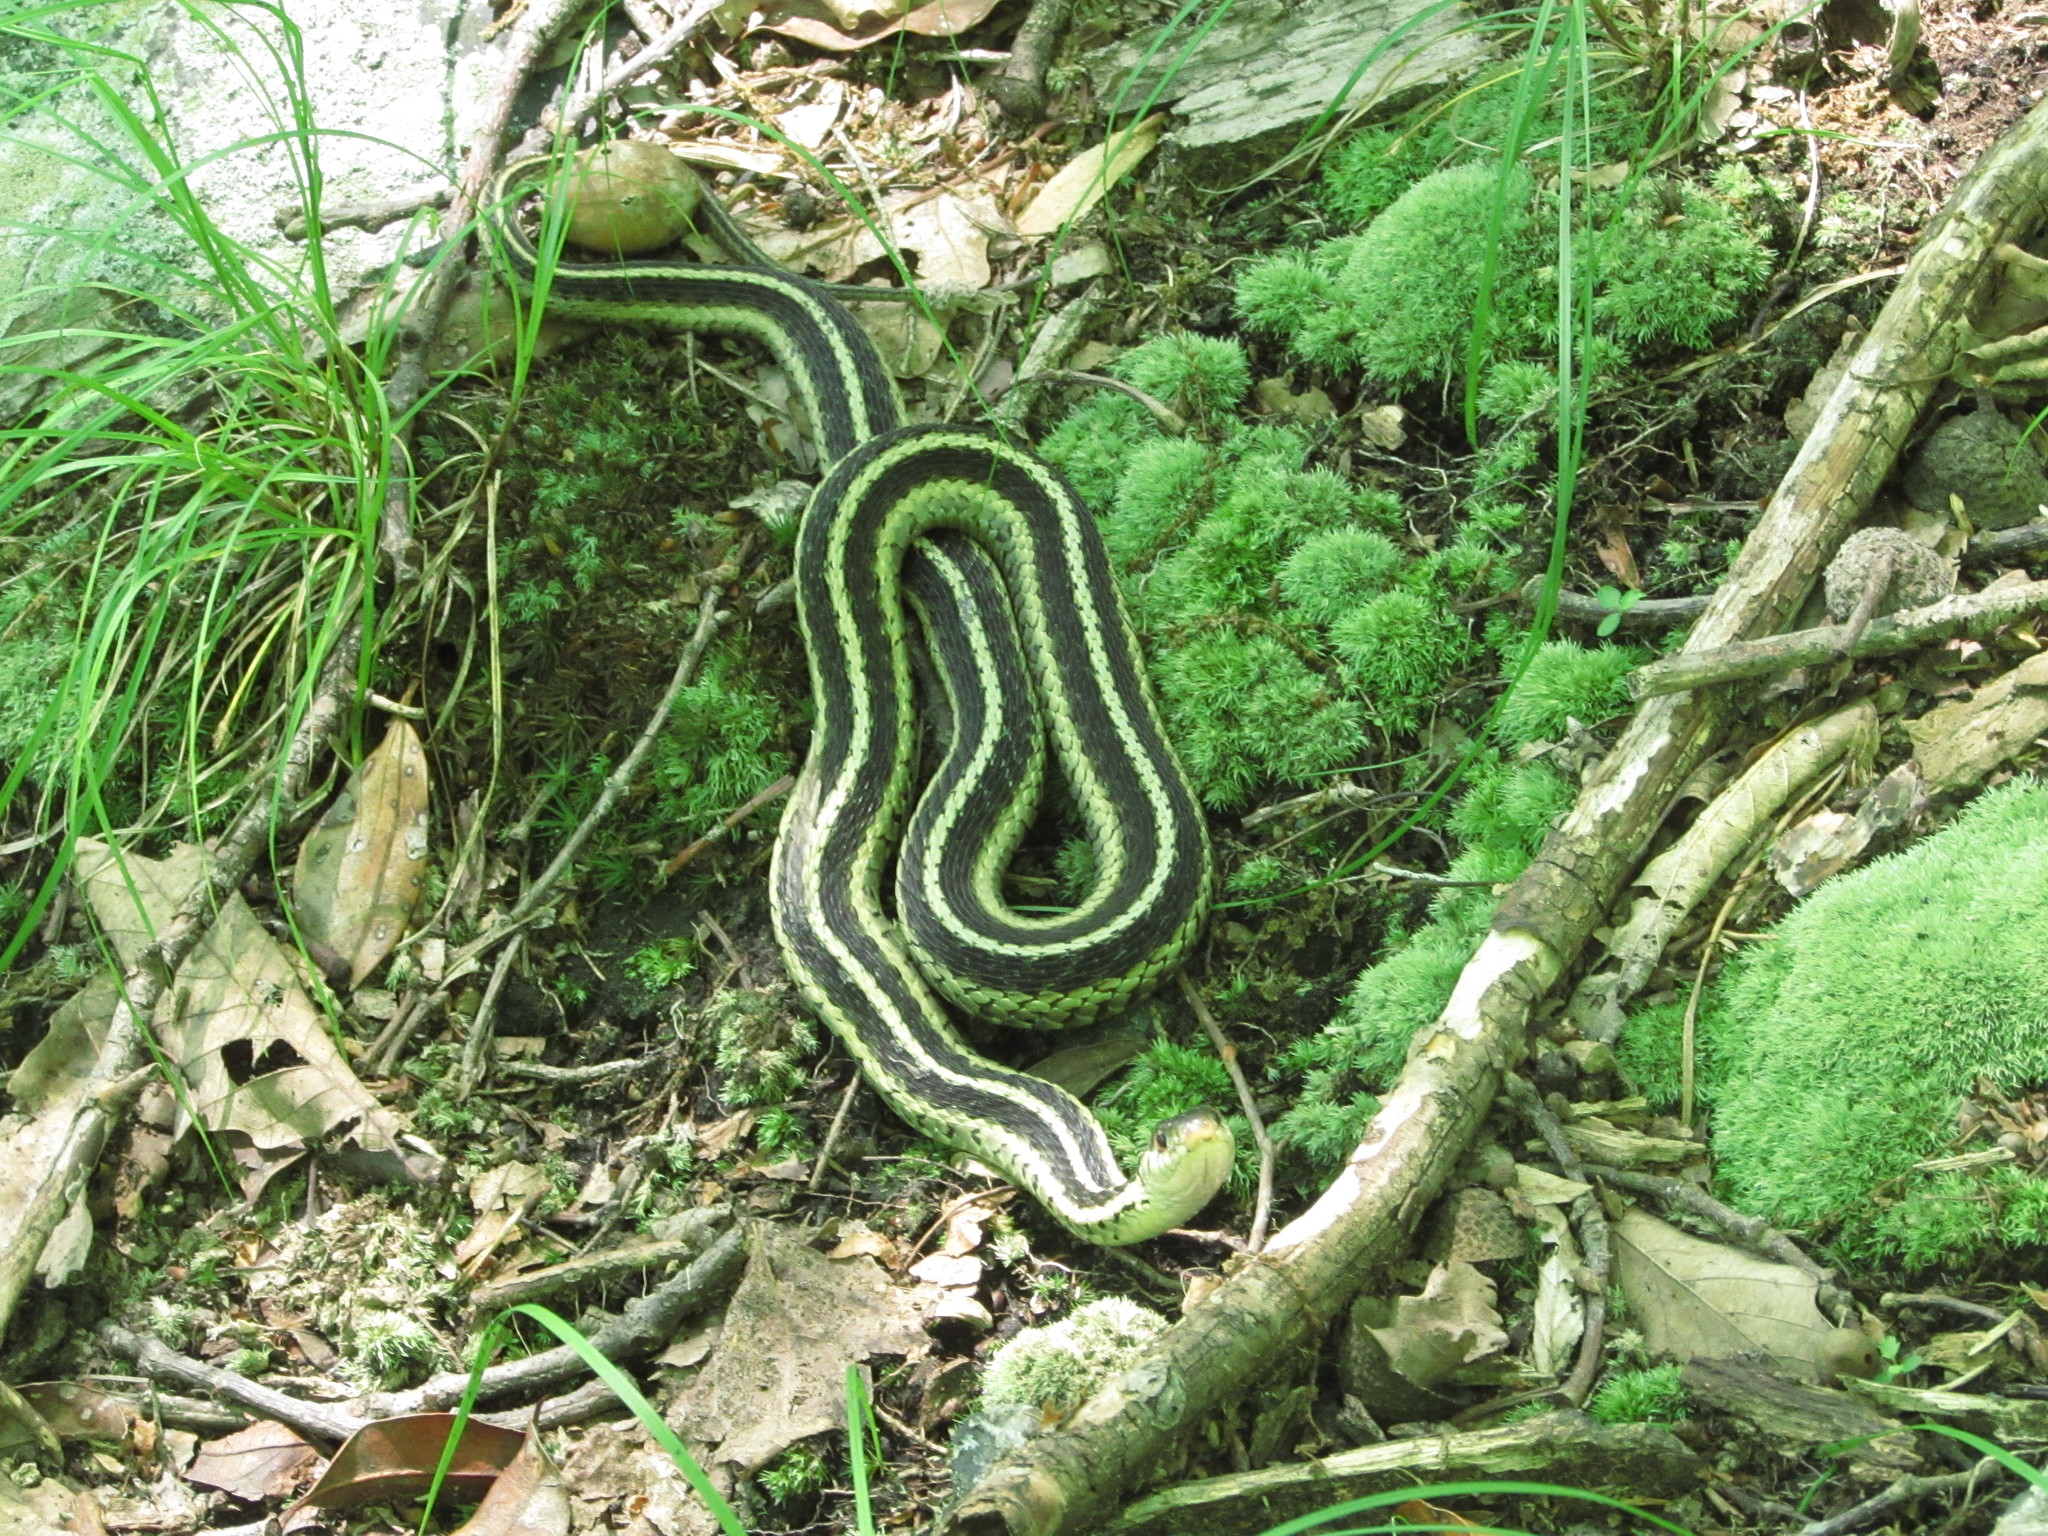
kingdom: Animalia
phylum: Chordata
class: Squamata
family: Colubridae
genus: Thamnophis
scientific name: Thamnophis sirtalis
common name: Common garter snake
